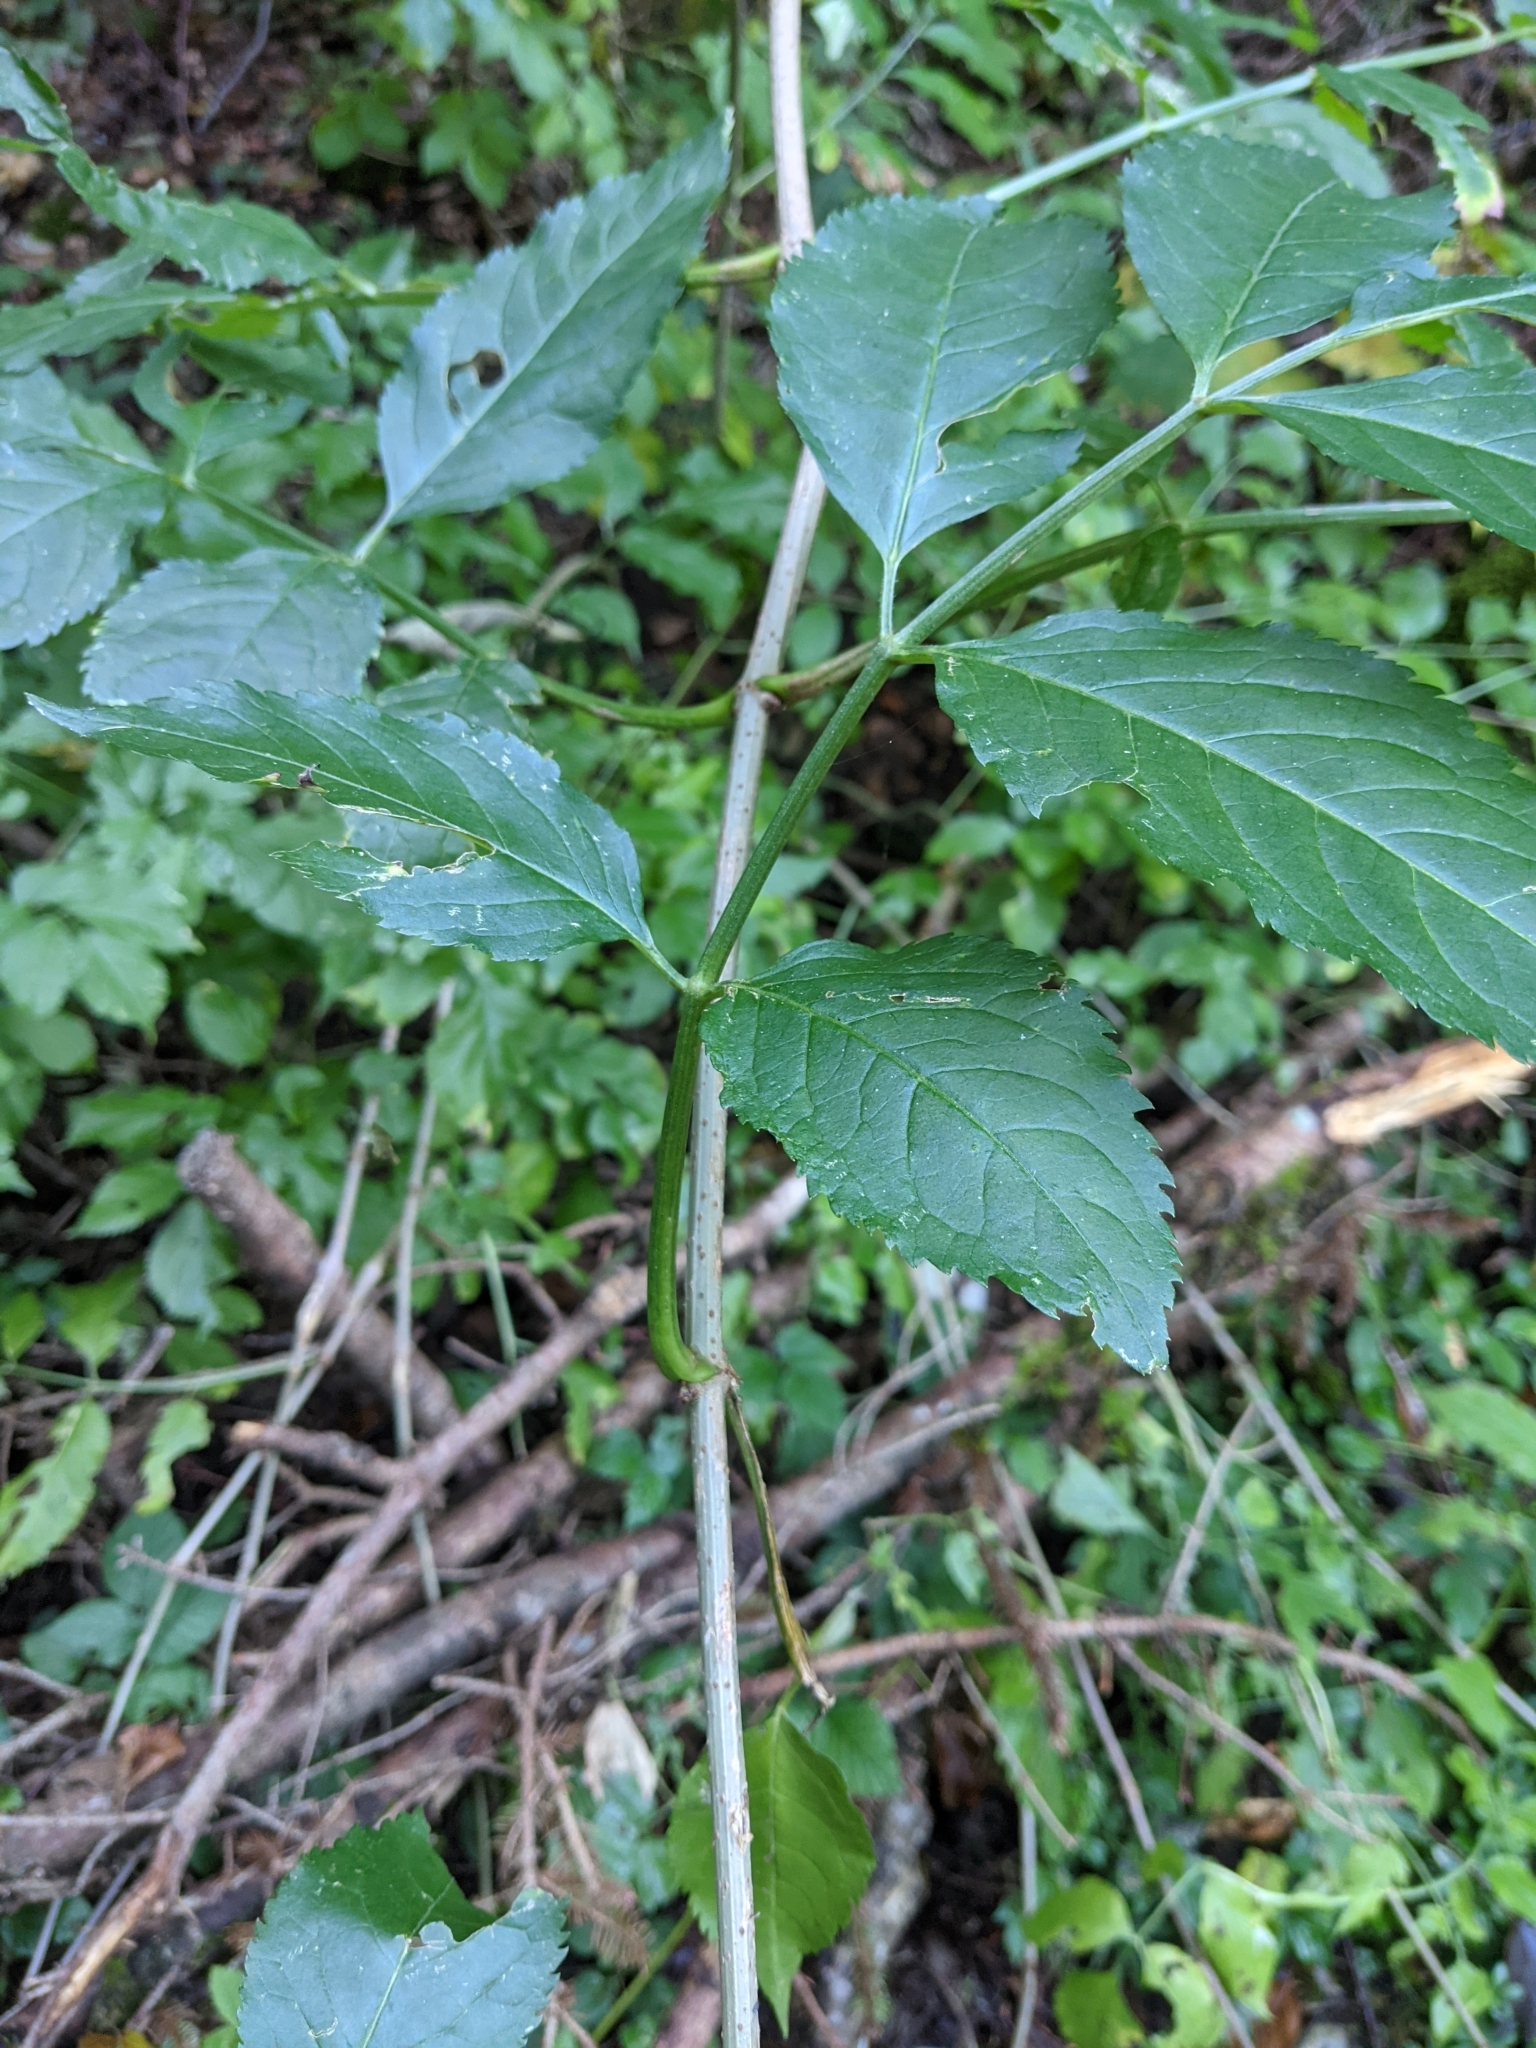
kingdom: Plantae
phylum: Tracheophyta
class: Magnoliopsida
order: Dipsacales
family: Viburnaceae
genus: Sambucus
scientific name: Sambucus nigra
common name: Elder
